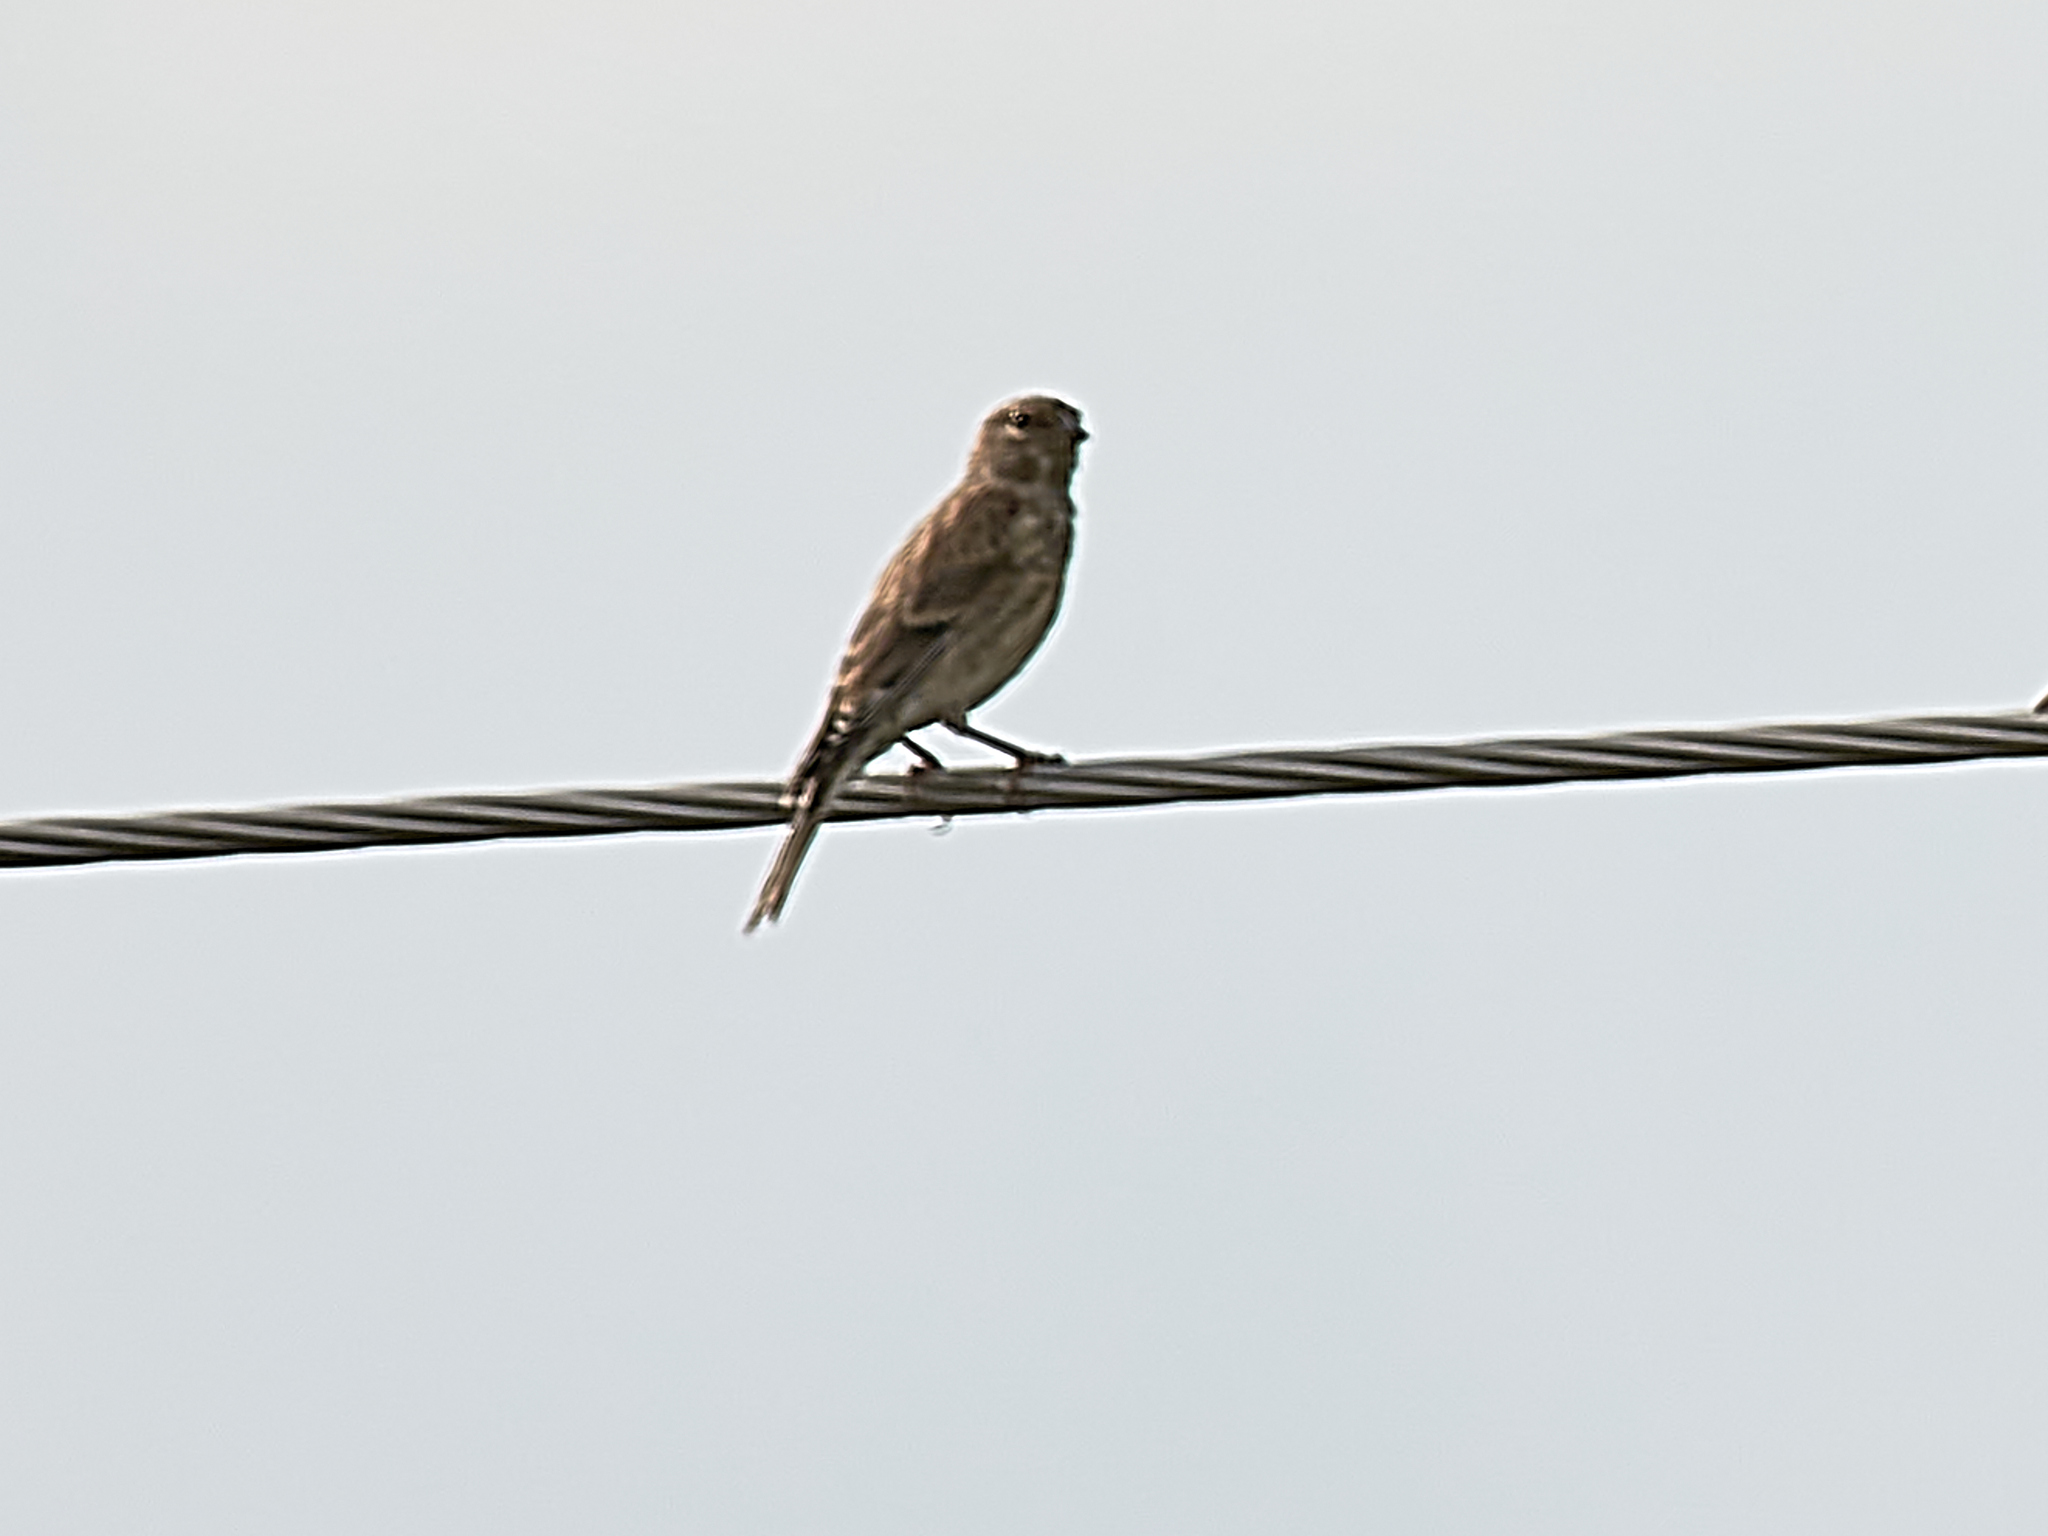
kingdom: Animalia
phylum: Chordata
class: Aves
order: Passeriformes
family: Fringillidae
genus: Linaria
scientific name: Linaria cannabina
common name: Common linnet
